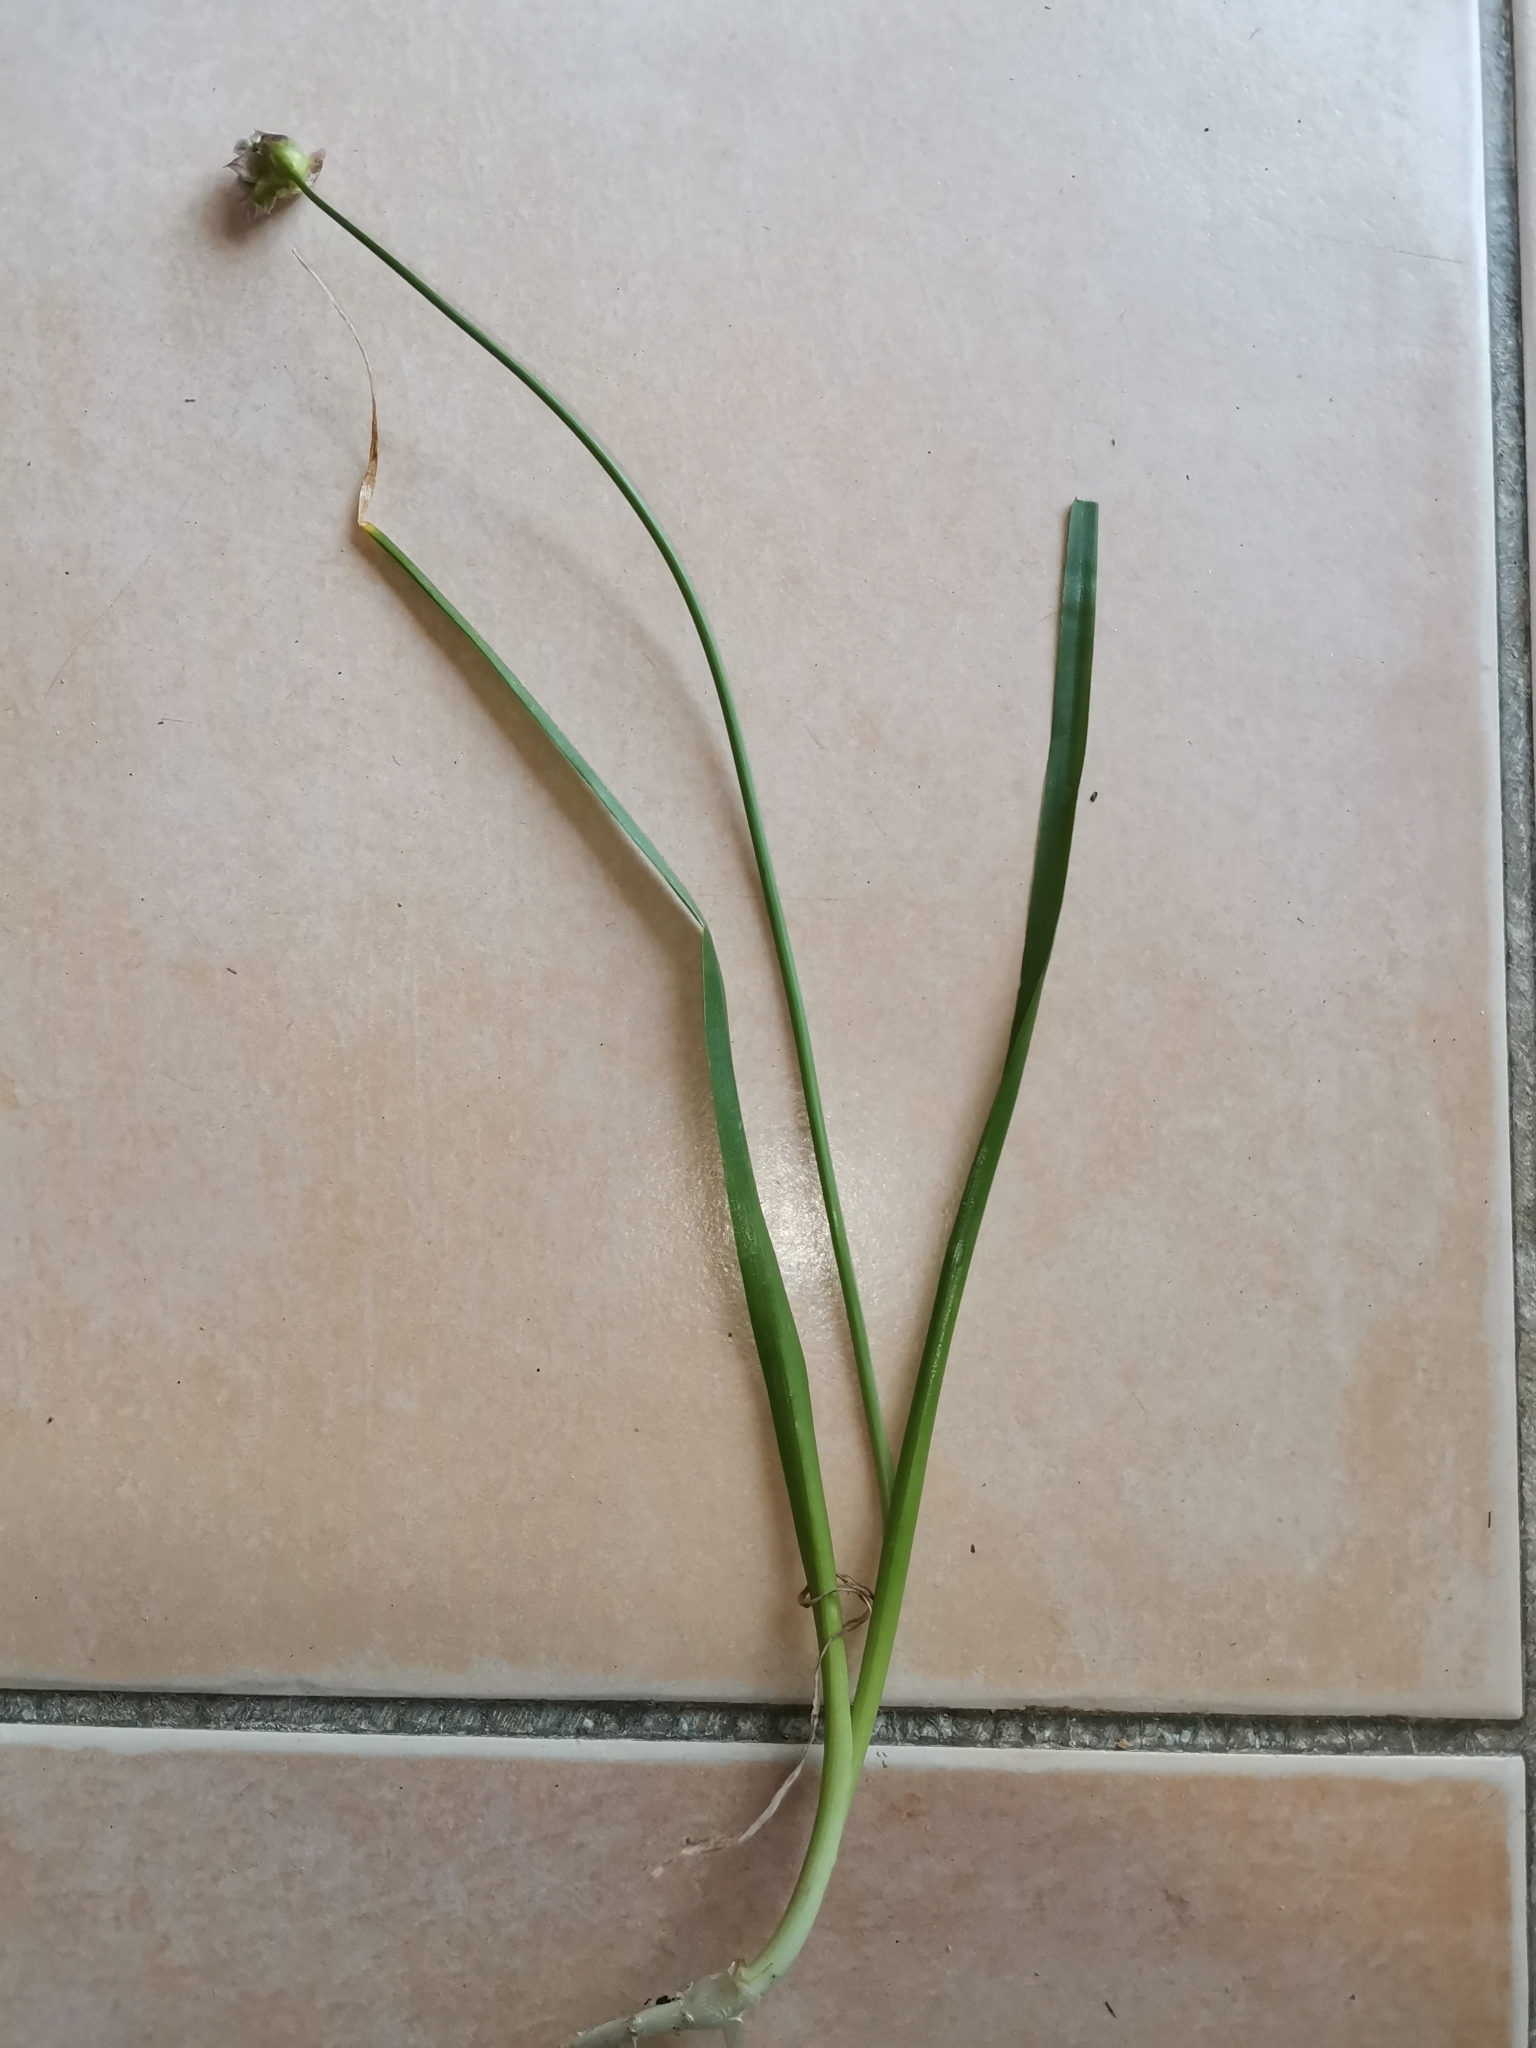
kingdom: Plantae
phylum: Tracheophyta
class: Liliopsida
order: Asparagales
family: Amaryllidaceae
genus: Allium
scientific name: Allium roseum
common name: Rosy garlic
